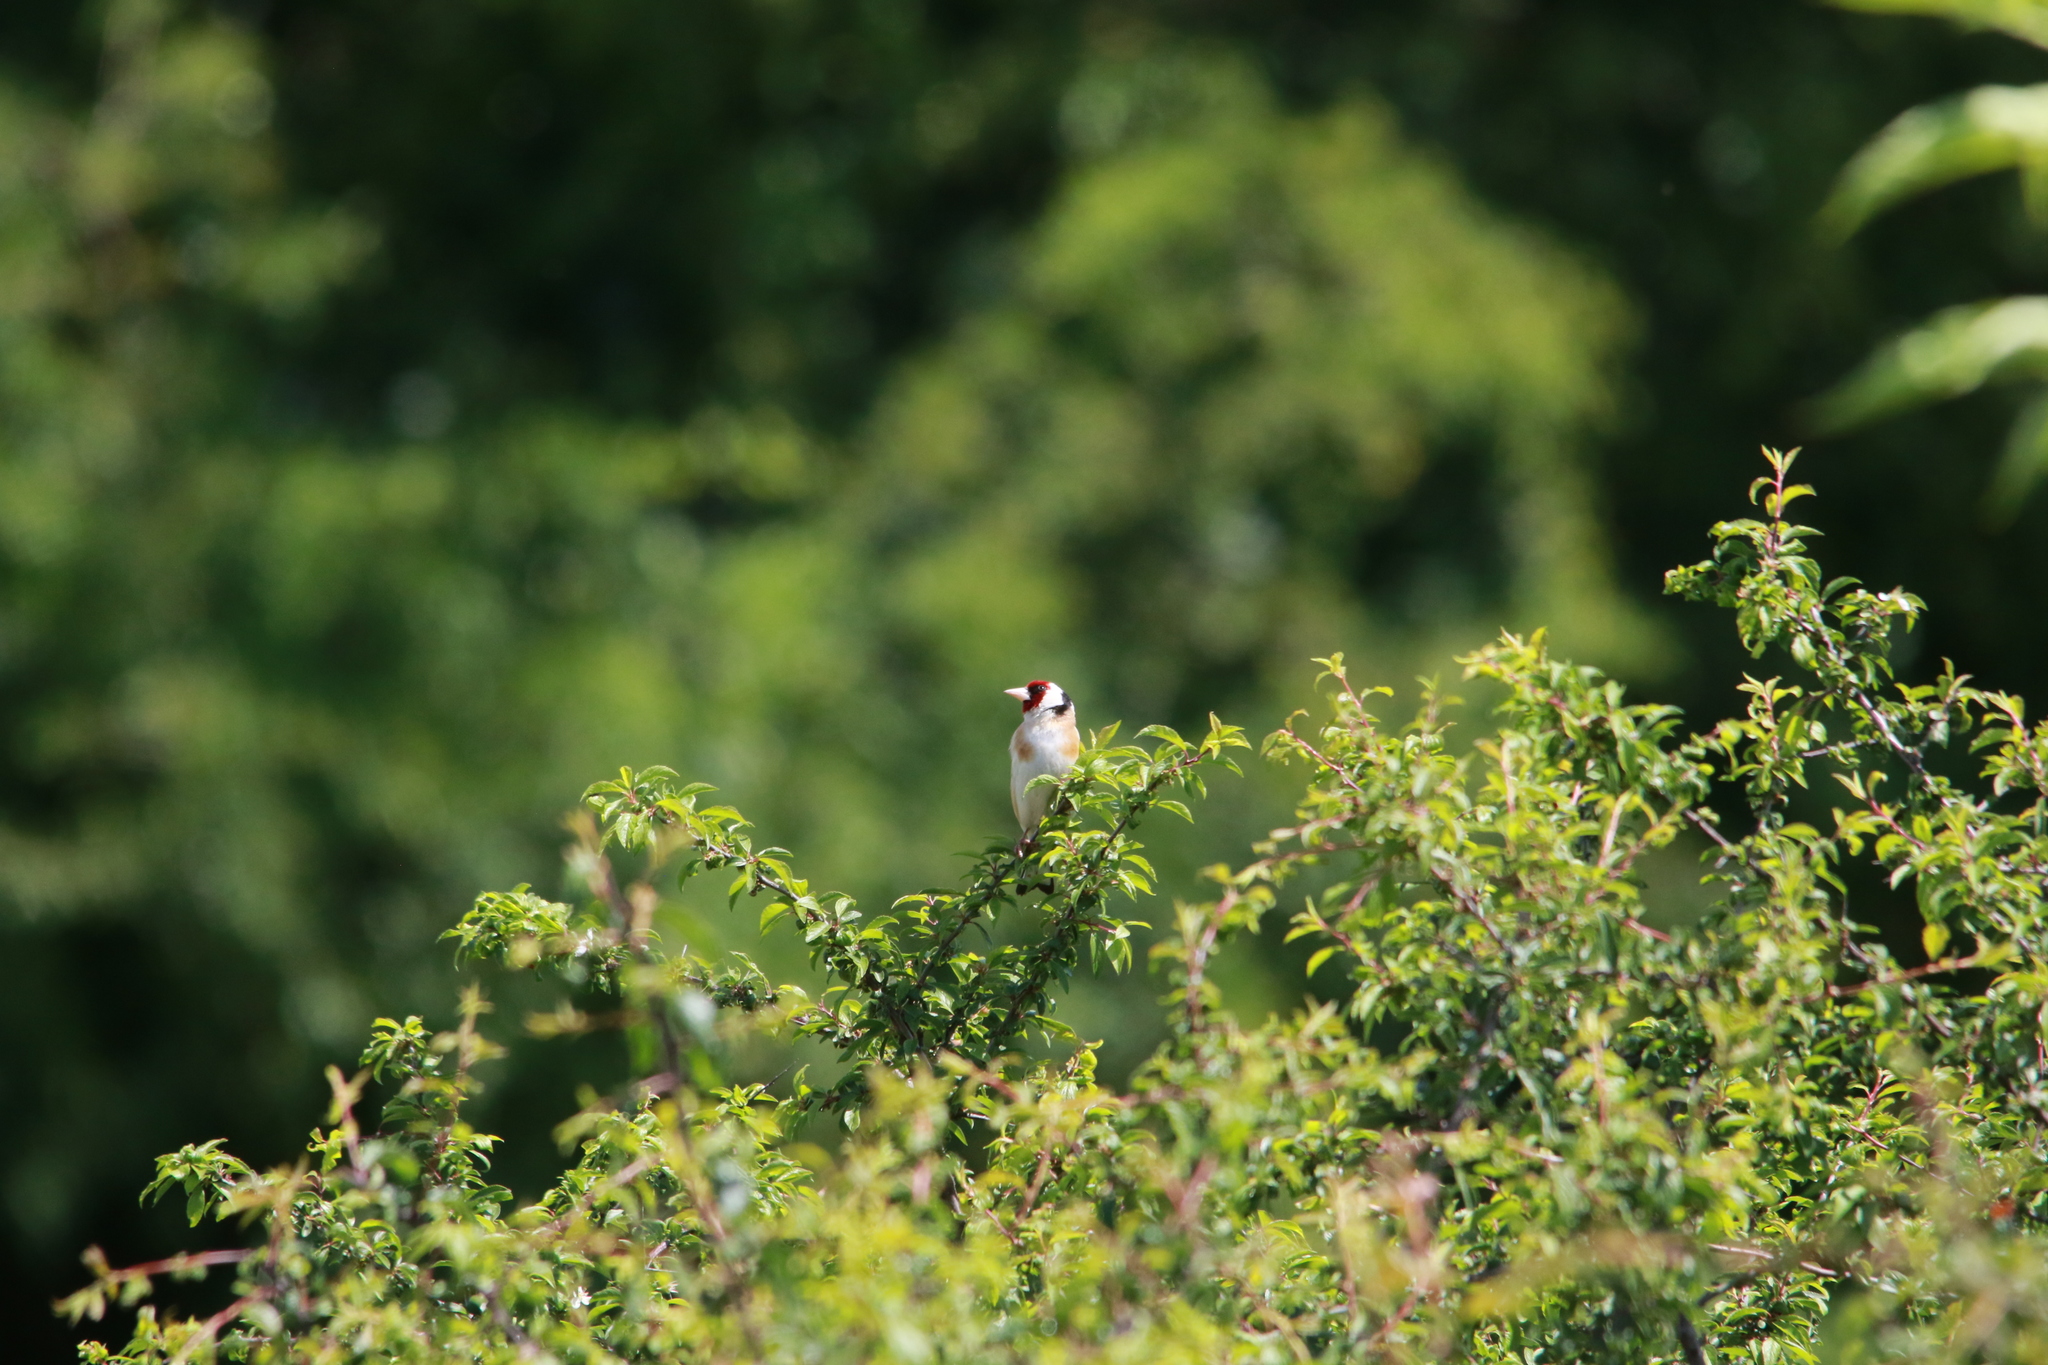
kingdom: Animalia
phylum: Chordata
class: Aves
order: Passeriformes
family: Fringillidae
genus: Carduelis
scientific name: Carduelis carduelis
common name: European goldfinch
